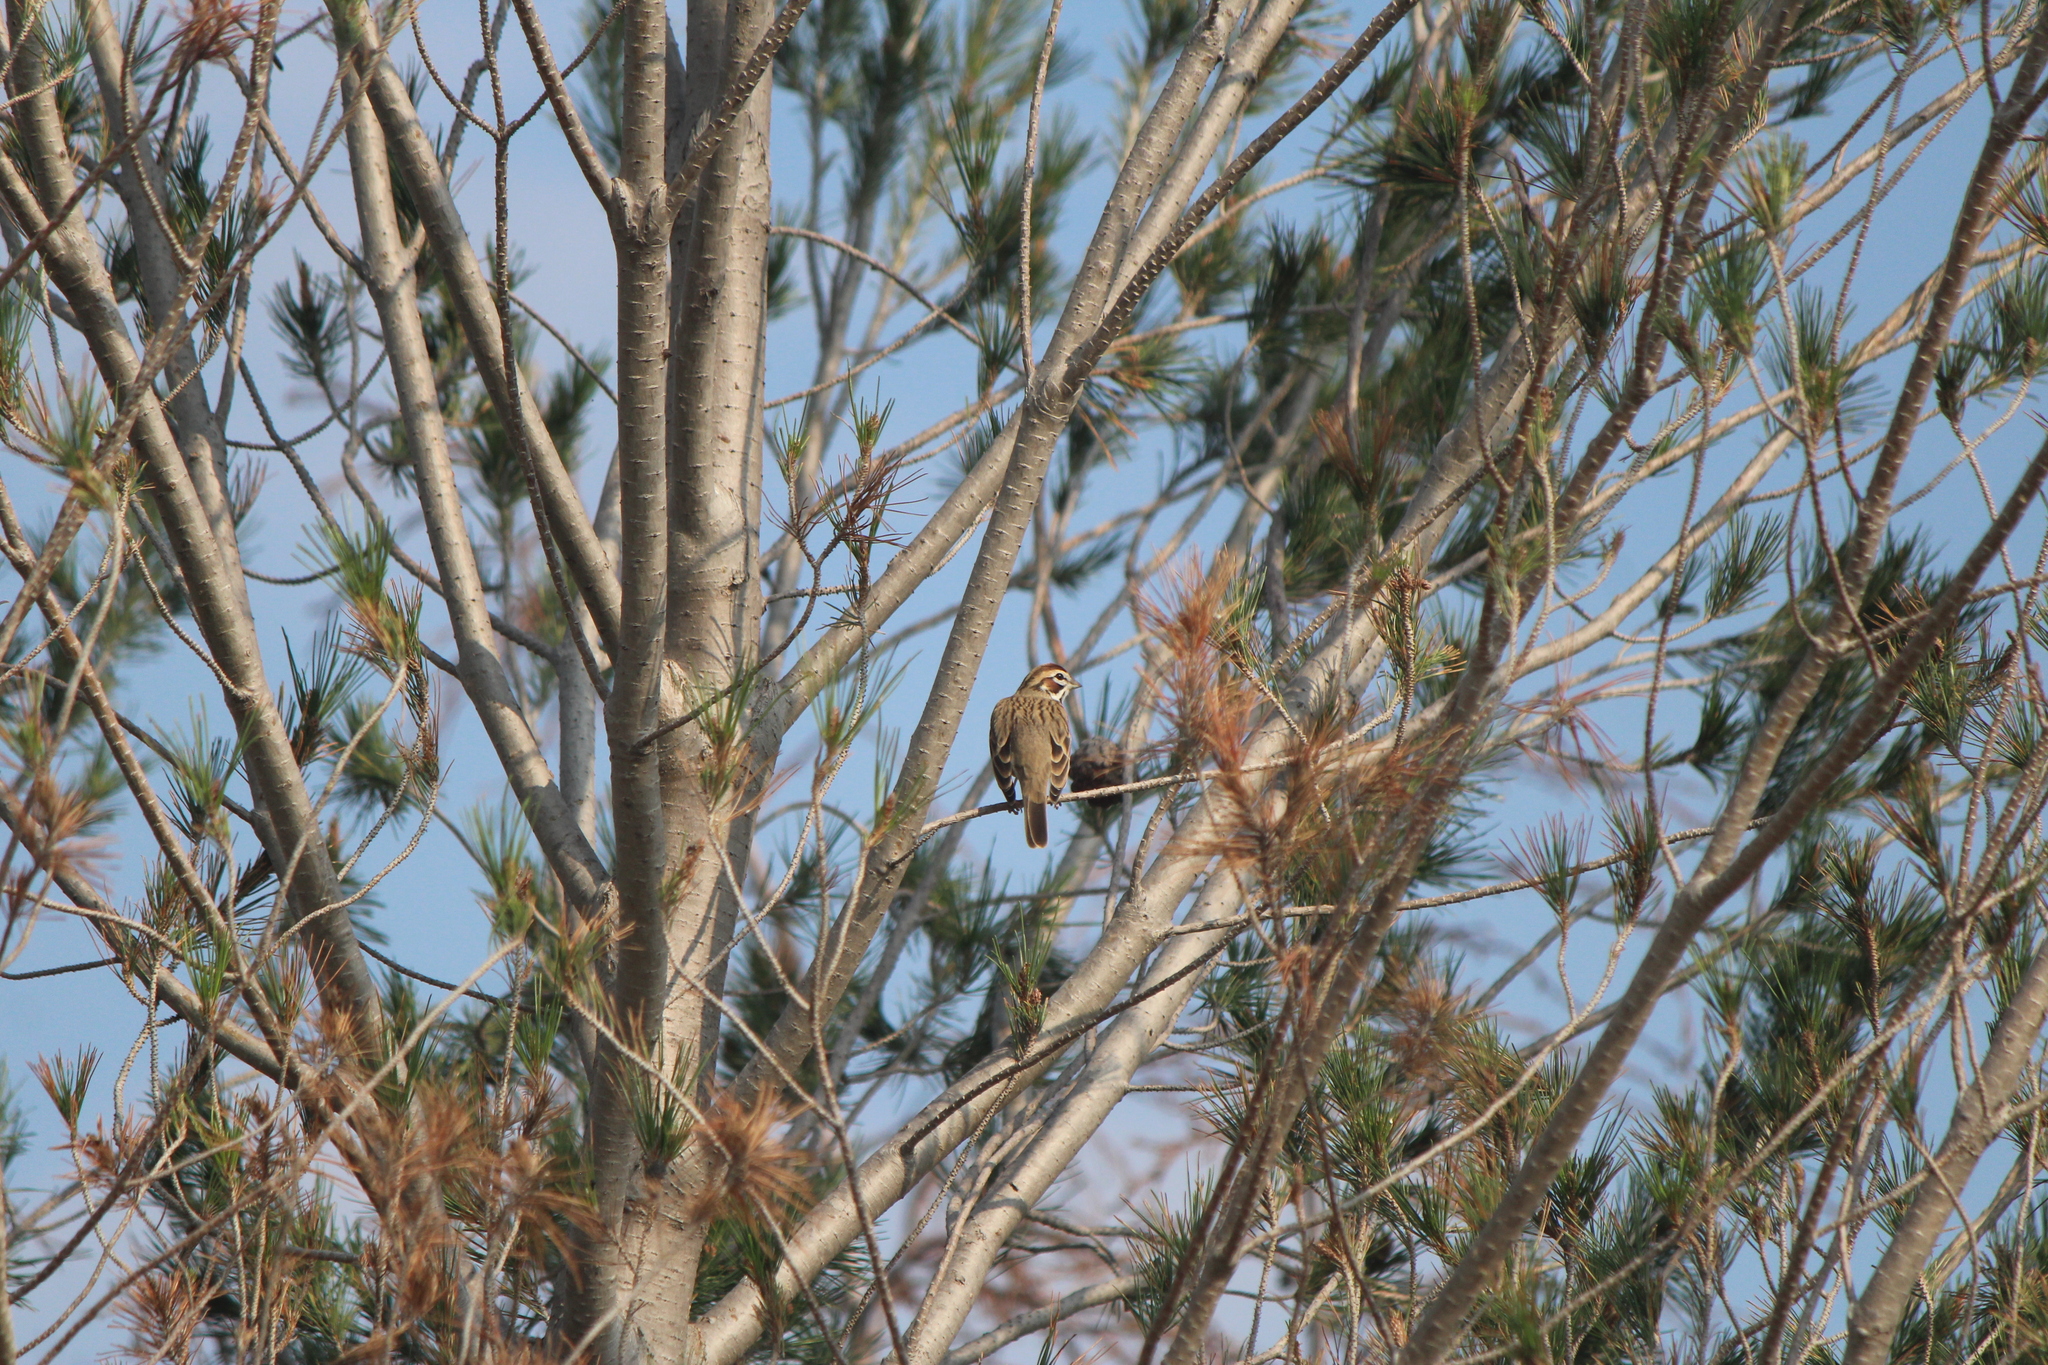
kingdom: Animalia
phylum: Chordata
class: Aves
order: Passeriformes
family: Passerellidae
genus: Chondestes
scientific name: Chondestes grammacus
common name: Lark sparrow
